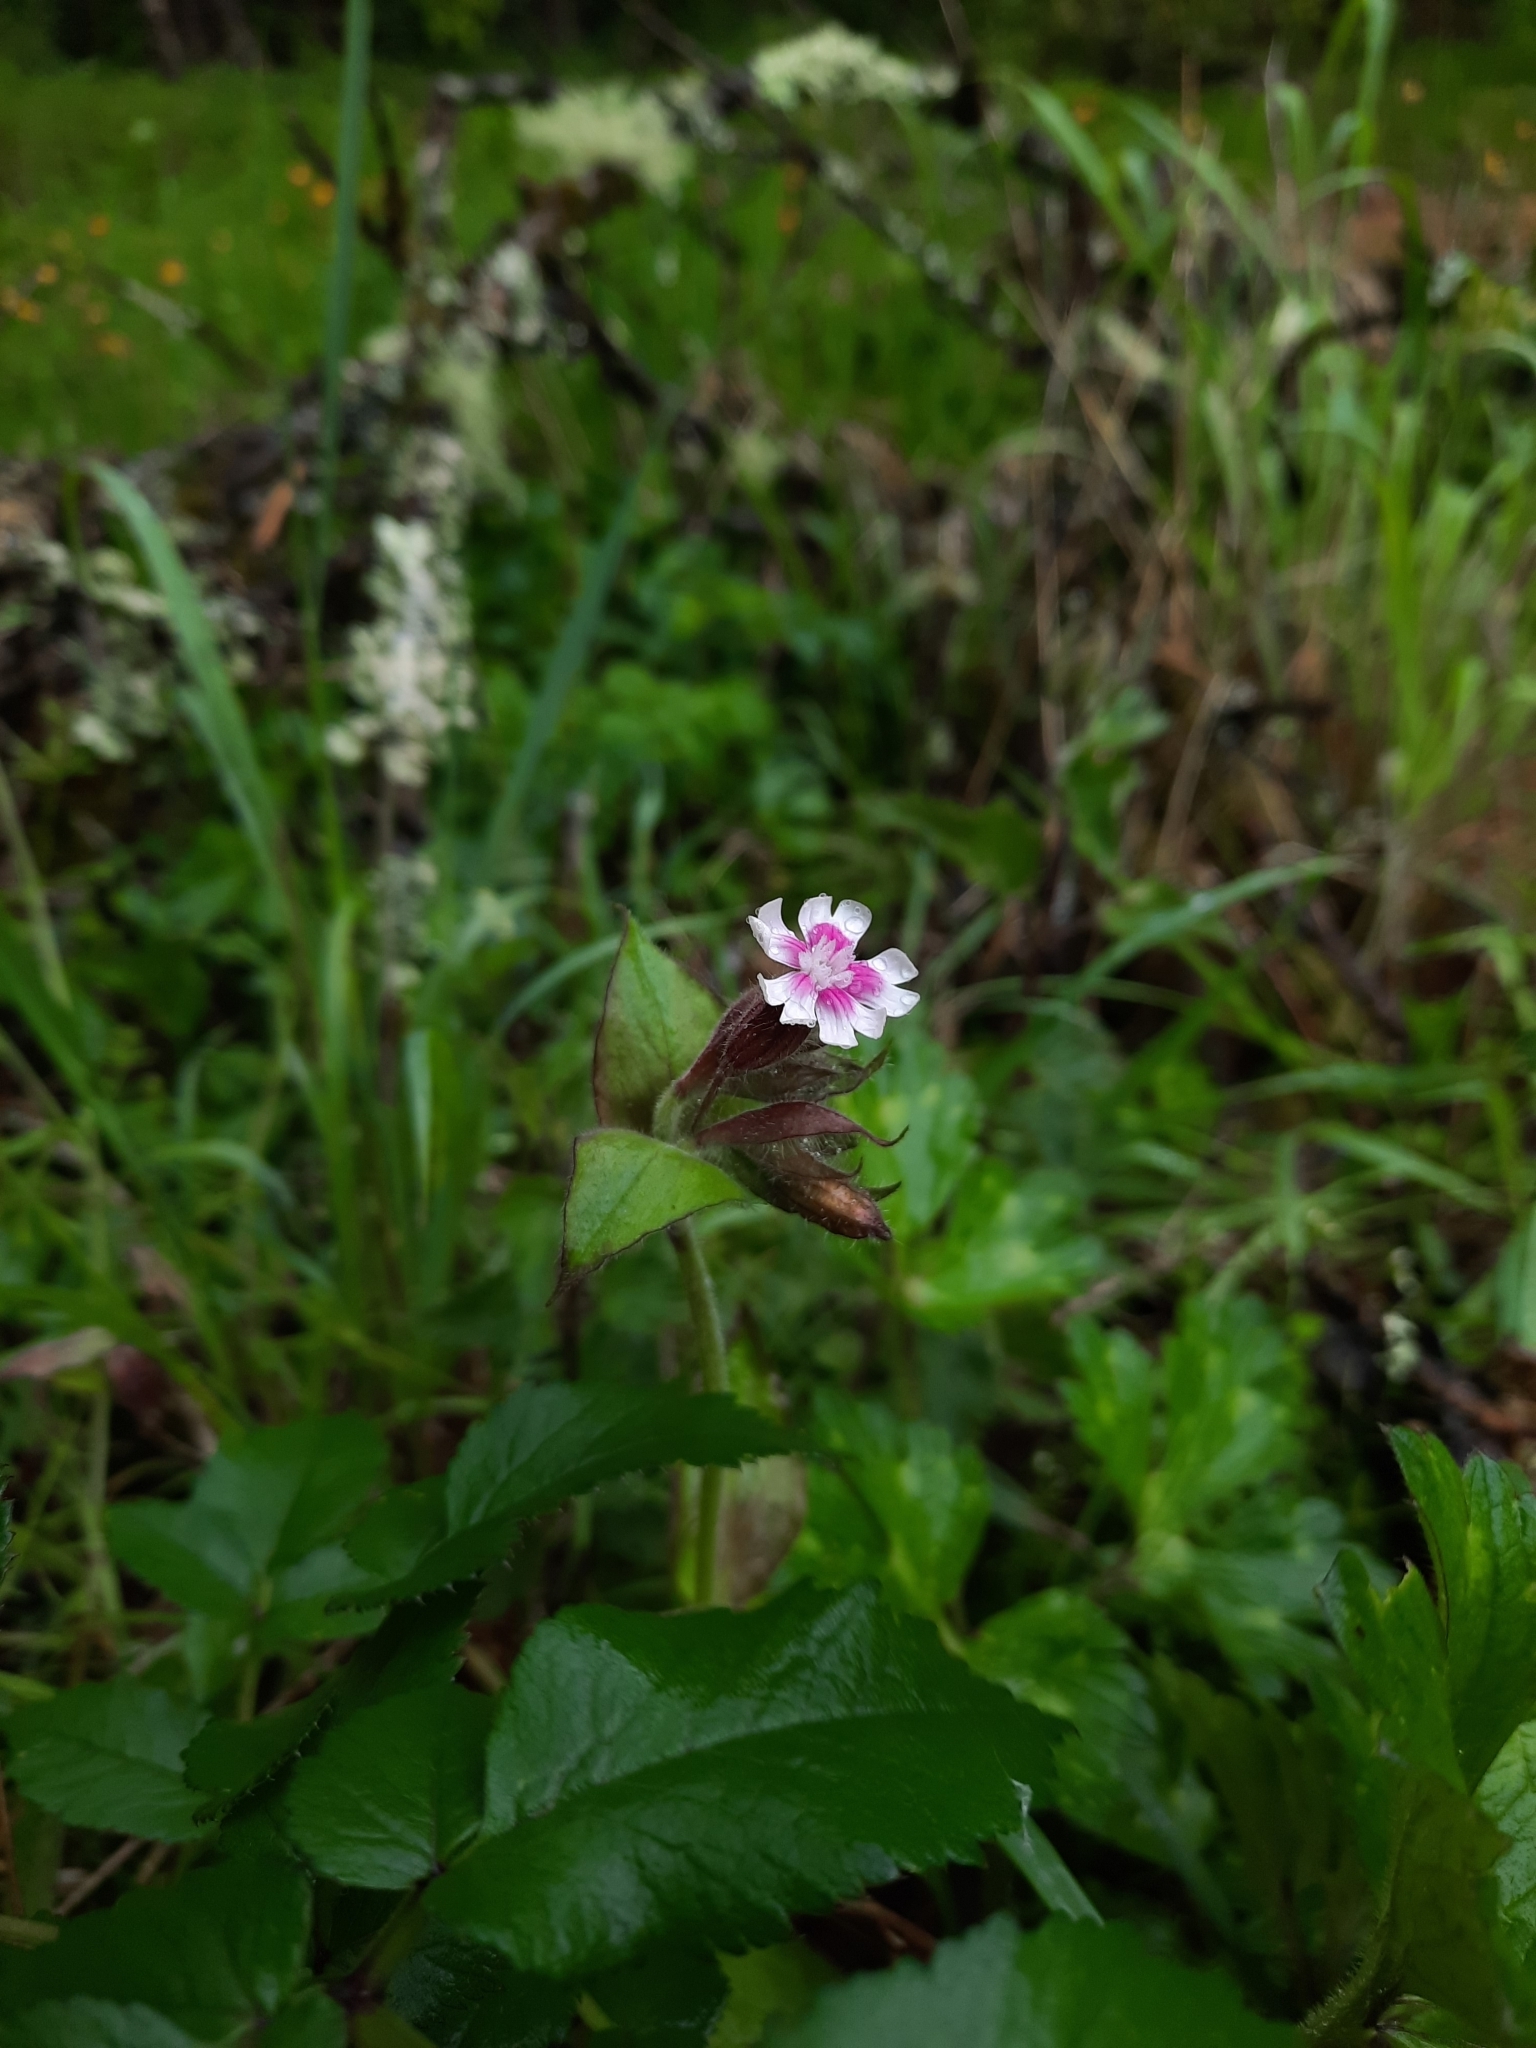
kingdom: Plantae
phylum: Tracheophyta
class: Magnoliopsida
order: Caryophyllales
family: Caryophyllaceae
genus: Silene
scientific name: Silene dioica
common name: Red campion
